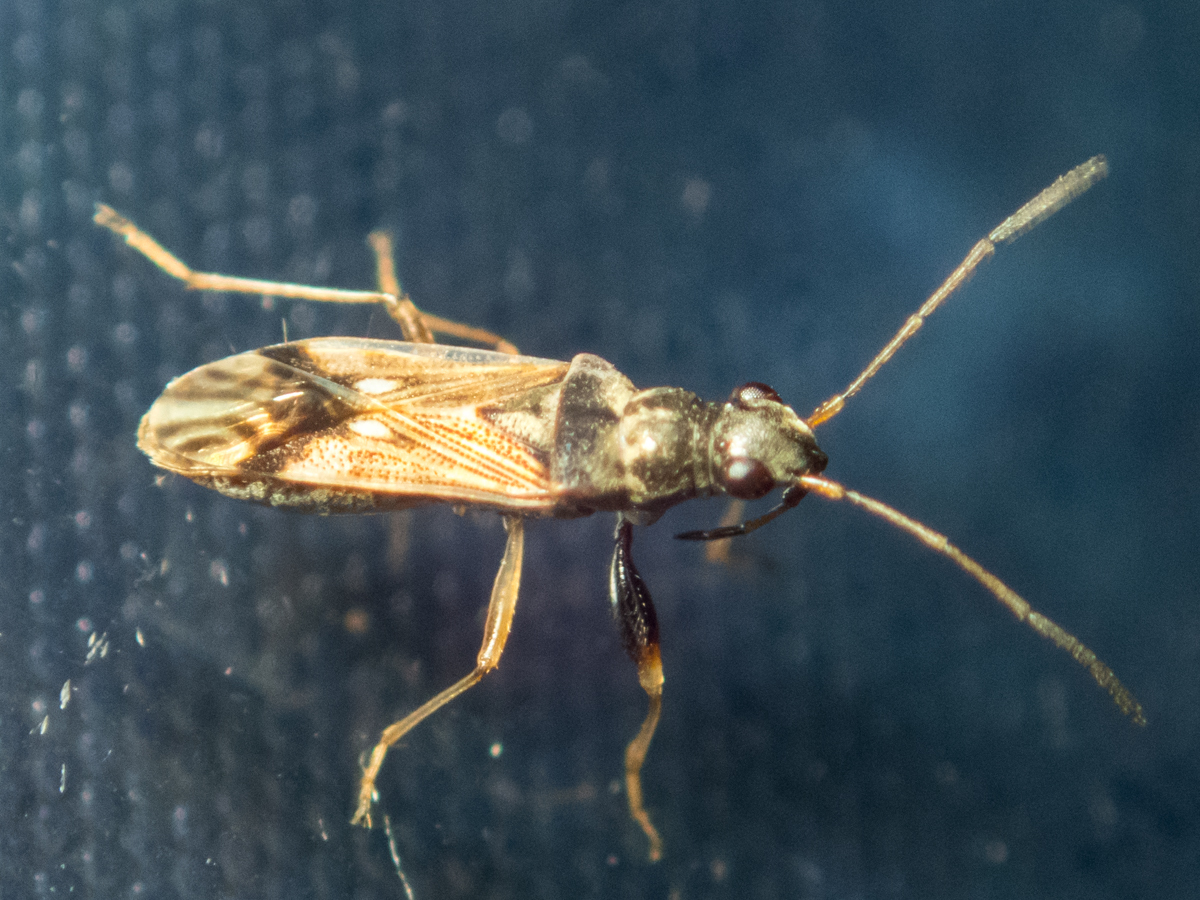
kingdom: Animalia
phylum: Arthropoda
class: Insecta
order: Hemiptera
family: Rhyparochromidae
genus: Pseudopachybrachius
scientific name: Pseudopachybrachius guttus
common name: Seed bug
